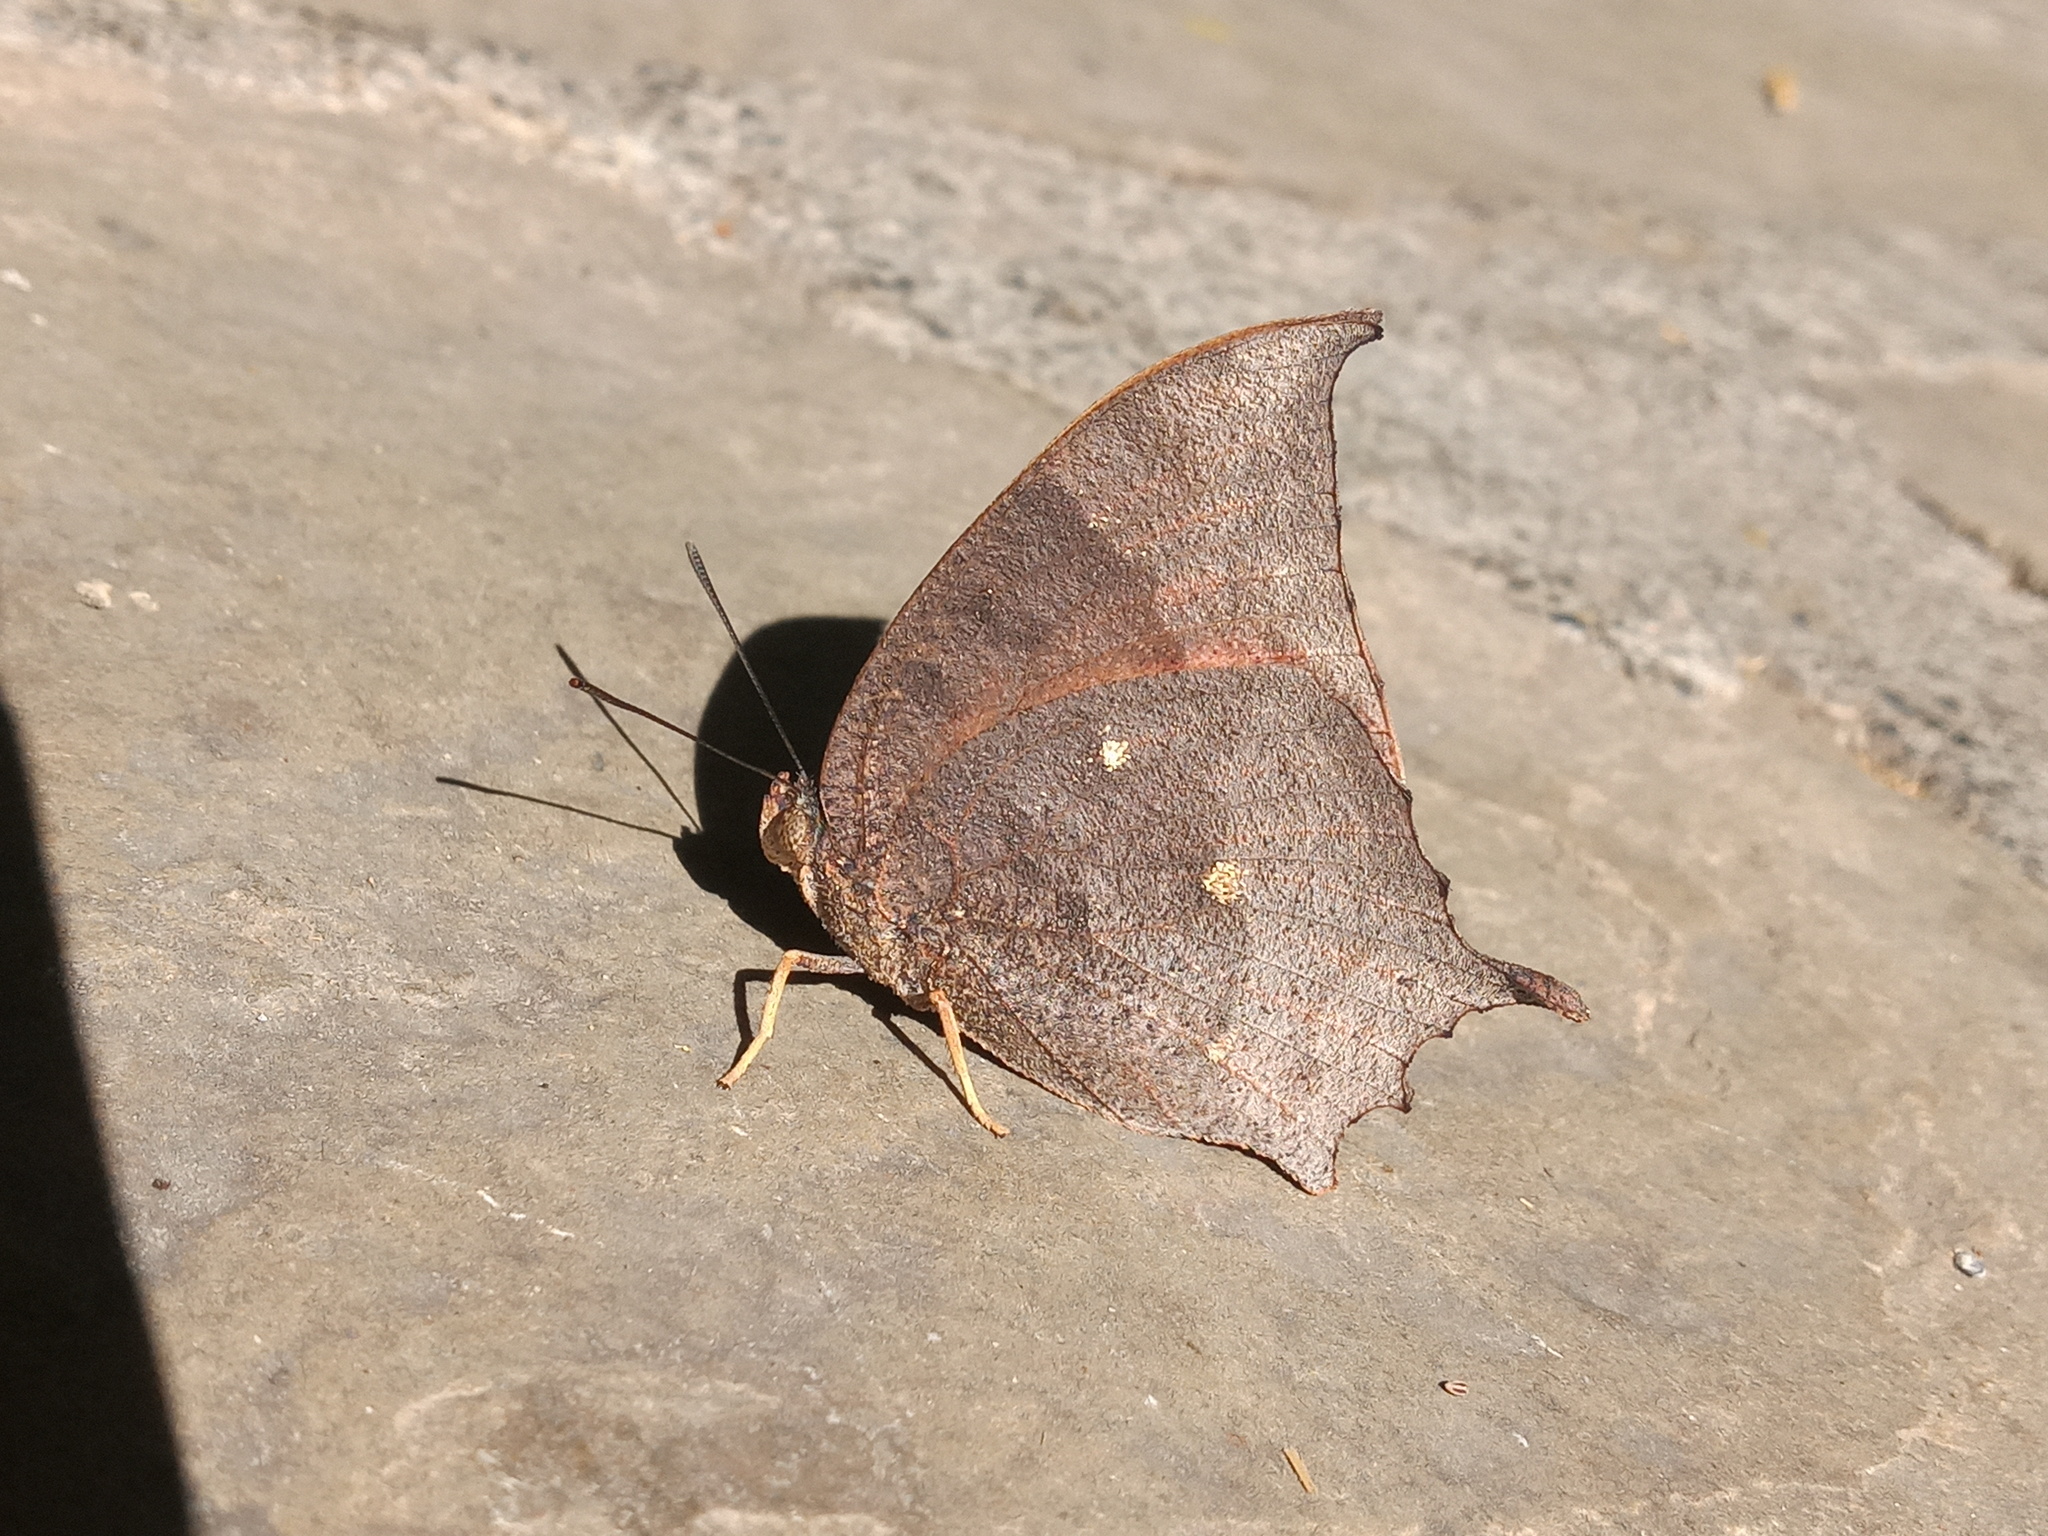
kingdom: Animalia
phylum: Arthropoda
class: Insecta
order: Lepidoptera
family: Nymphalidae
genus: Anaea
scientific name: Anaea aidea
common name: Tropical leafwing
